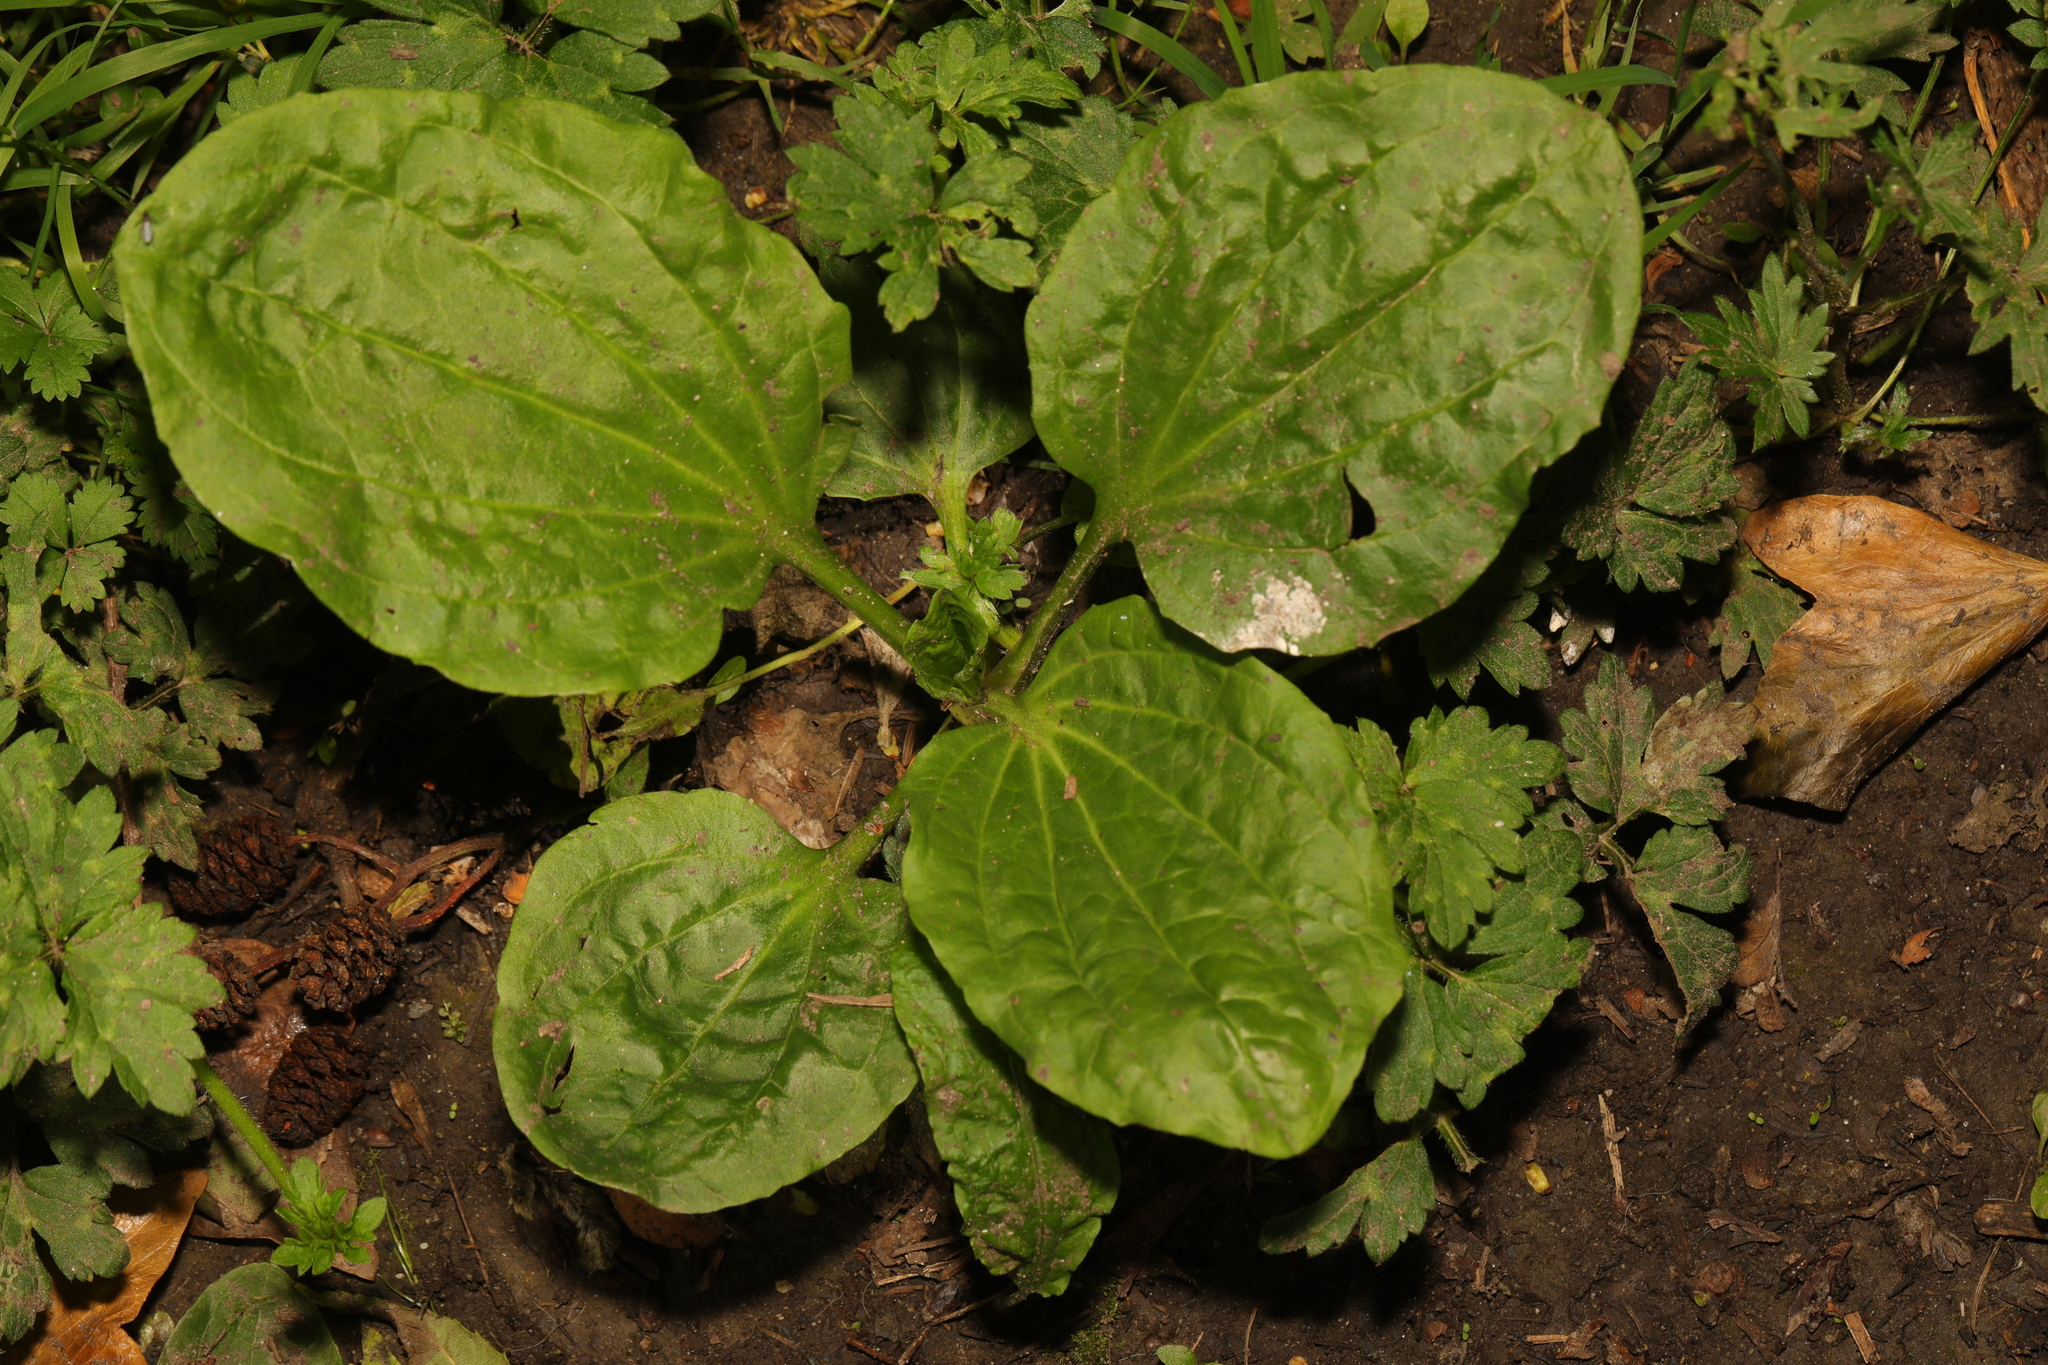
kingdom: Plantae
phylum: Tracheophyta
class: Magnoliopsida
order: Lamiales
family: Plantaginaceae
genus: Plantago
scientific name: Plantago major
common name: Common plantain
